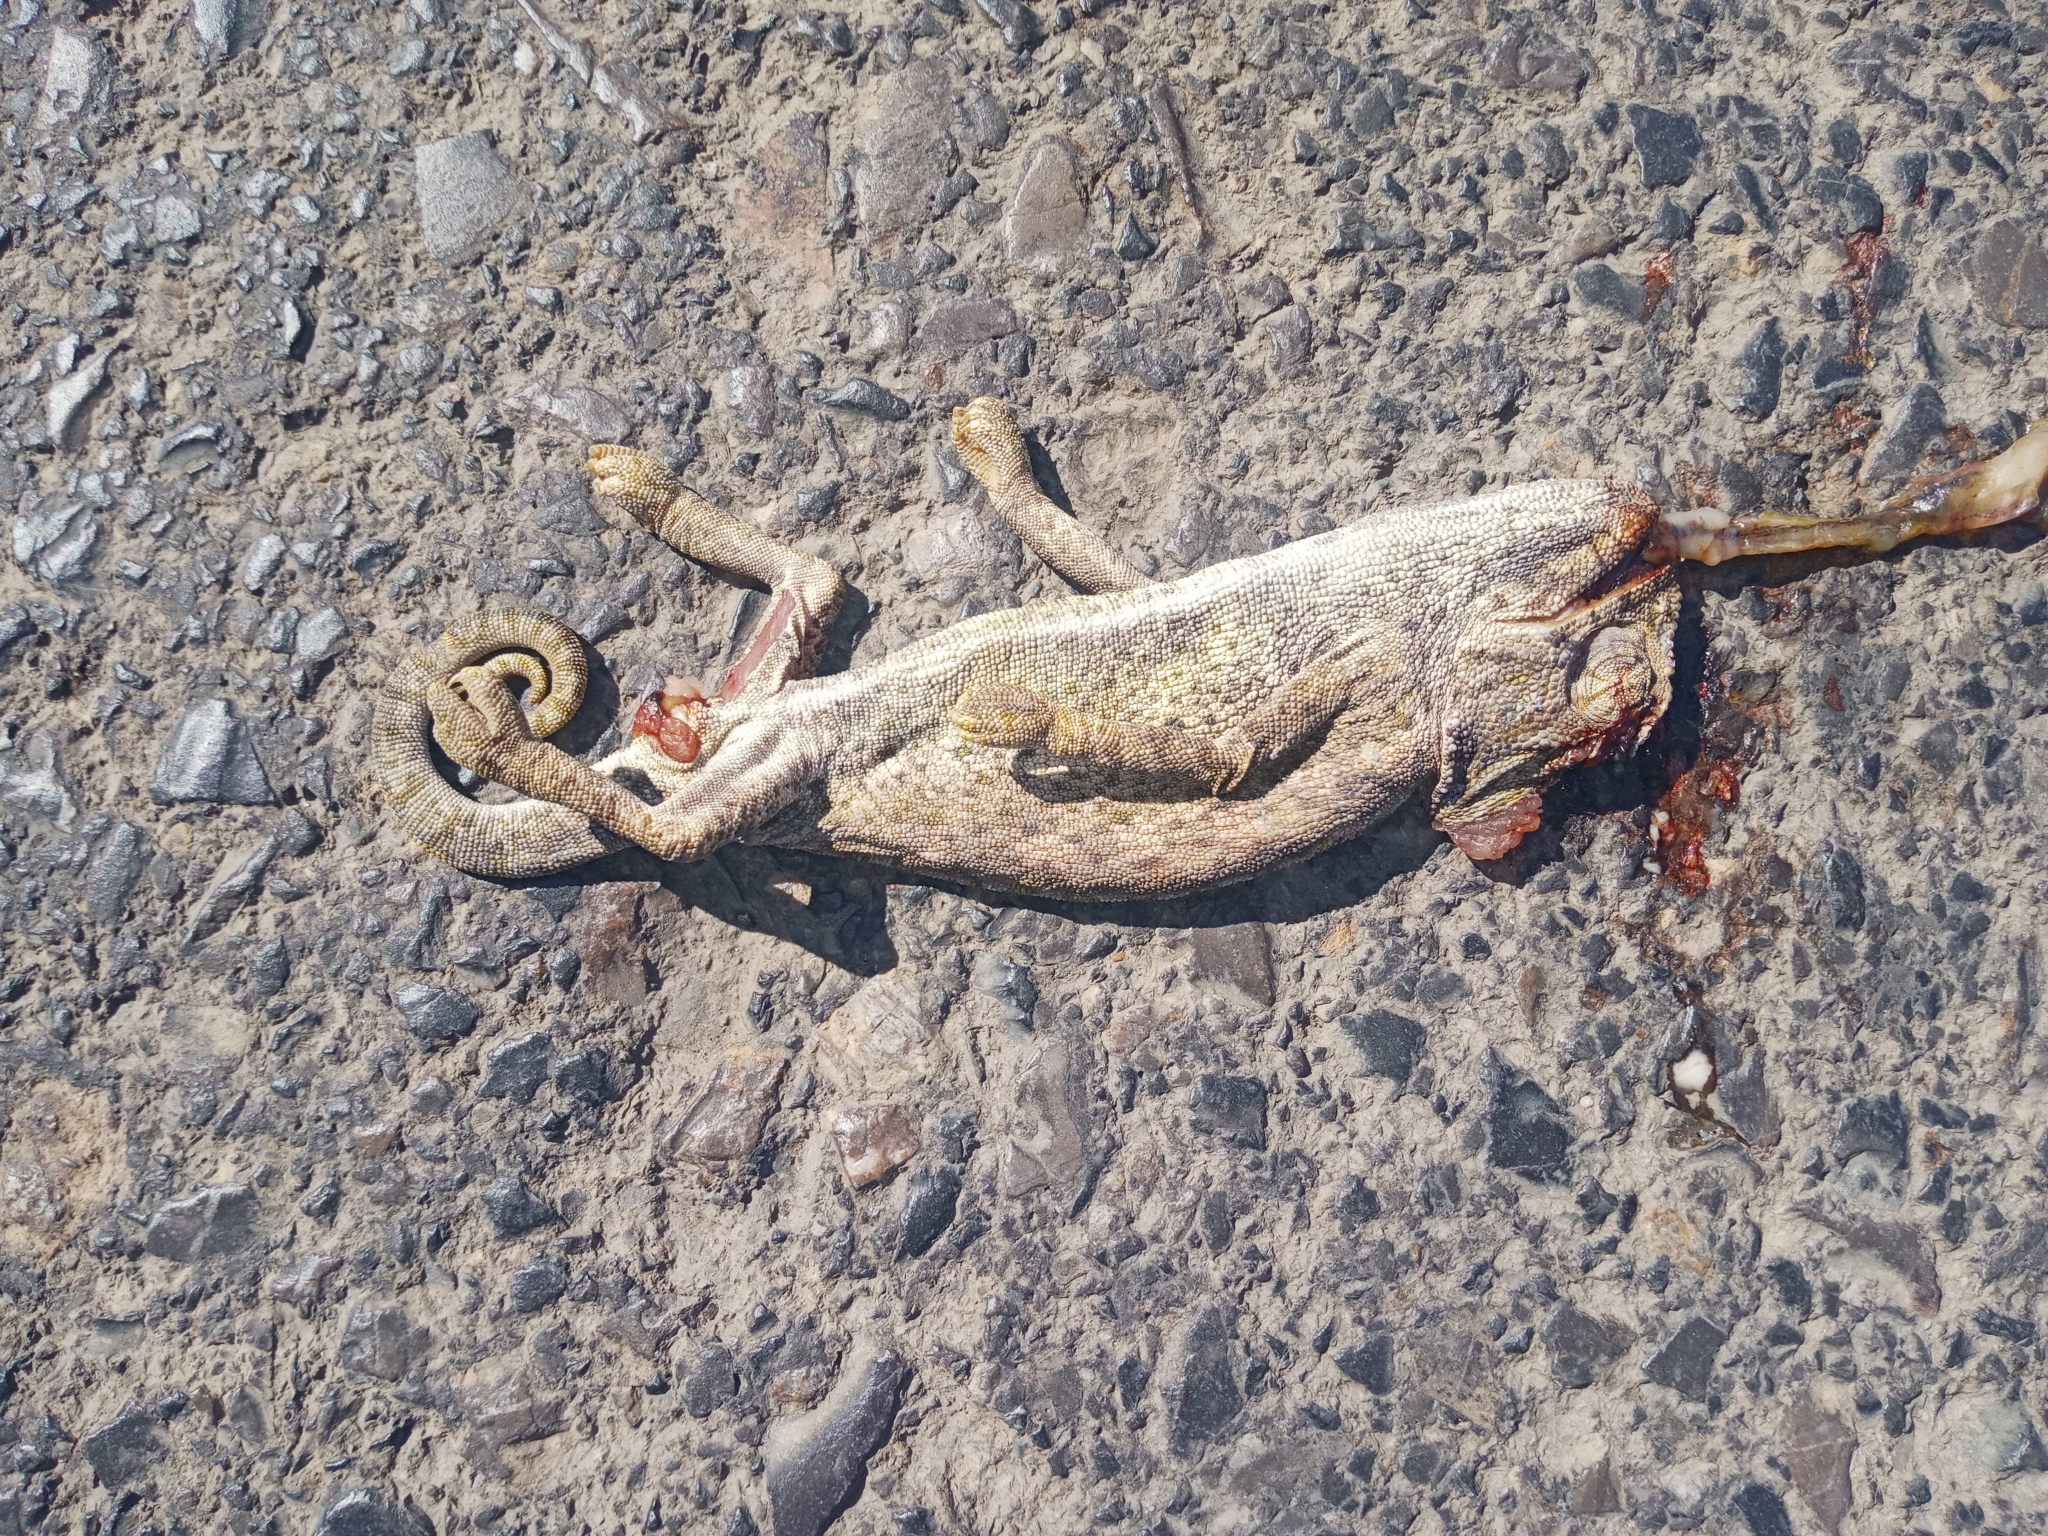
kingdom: Animalia
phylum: Chordata
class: Squamata
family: Chamaeleonidae
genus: Chamaeleo
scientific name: Chamaeleo chamaeleon
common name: Mediterranean chameleon
